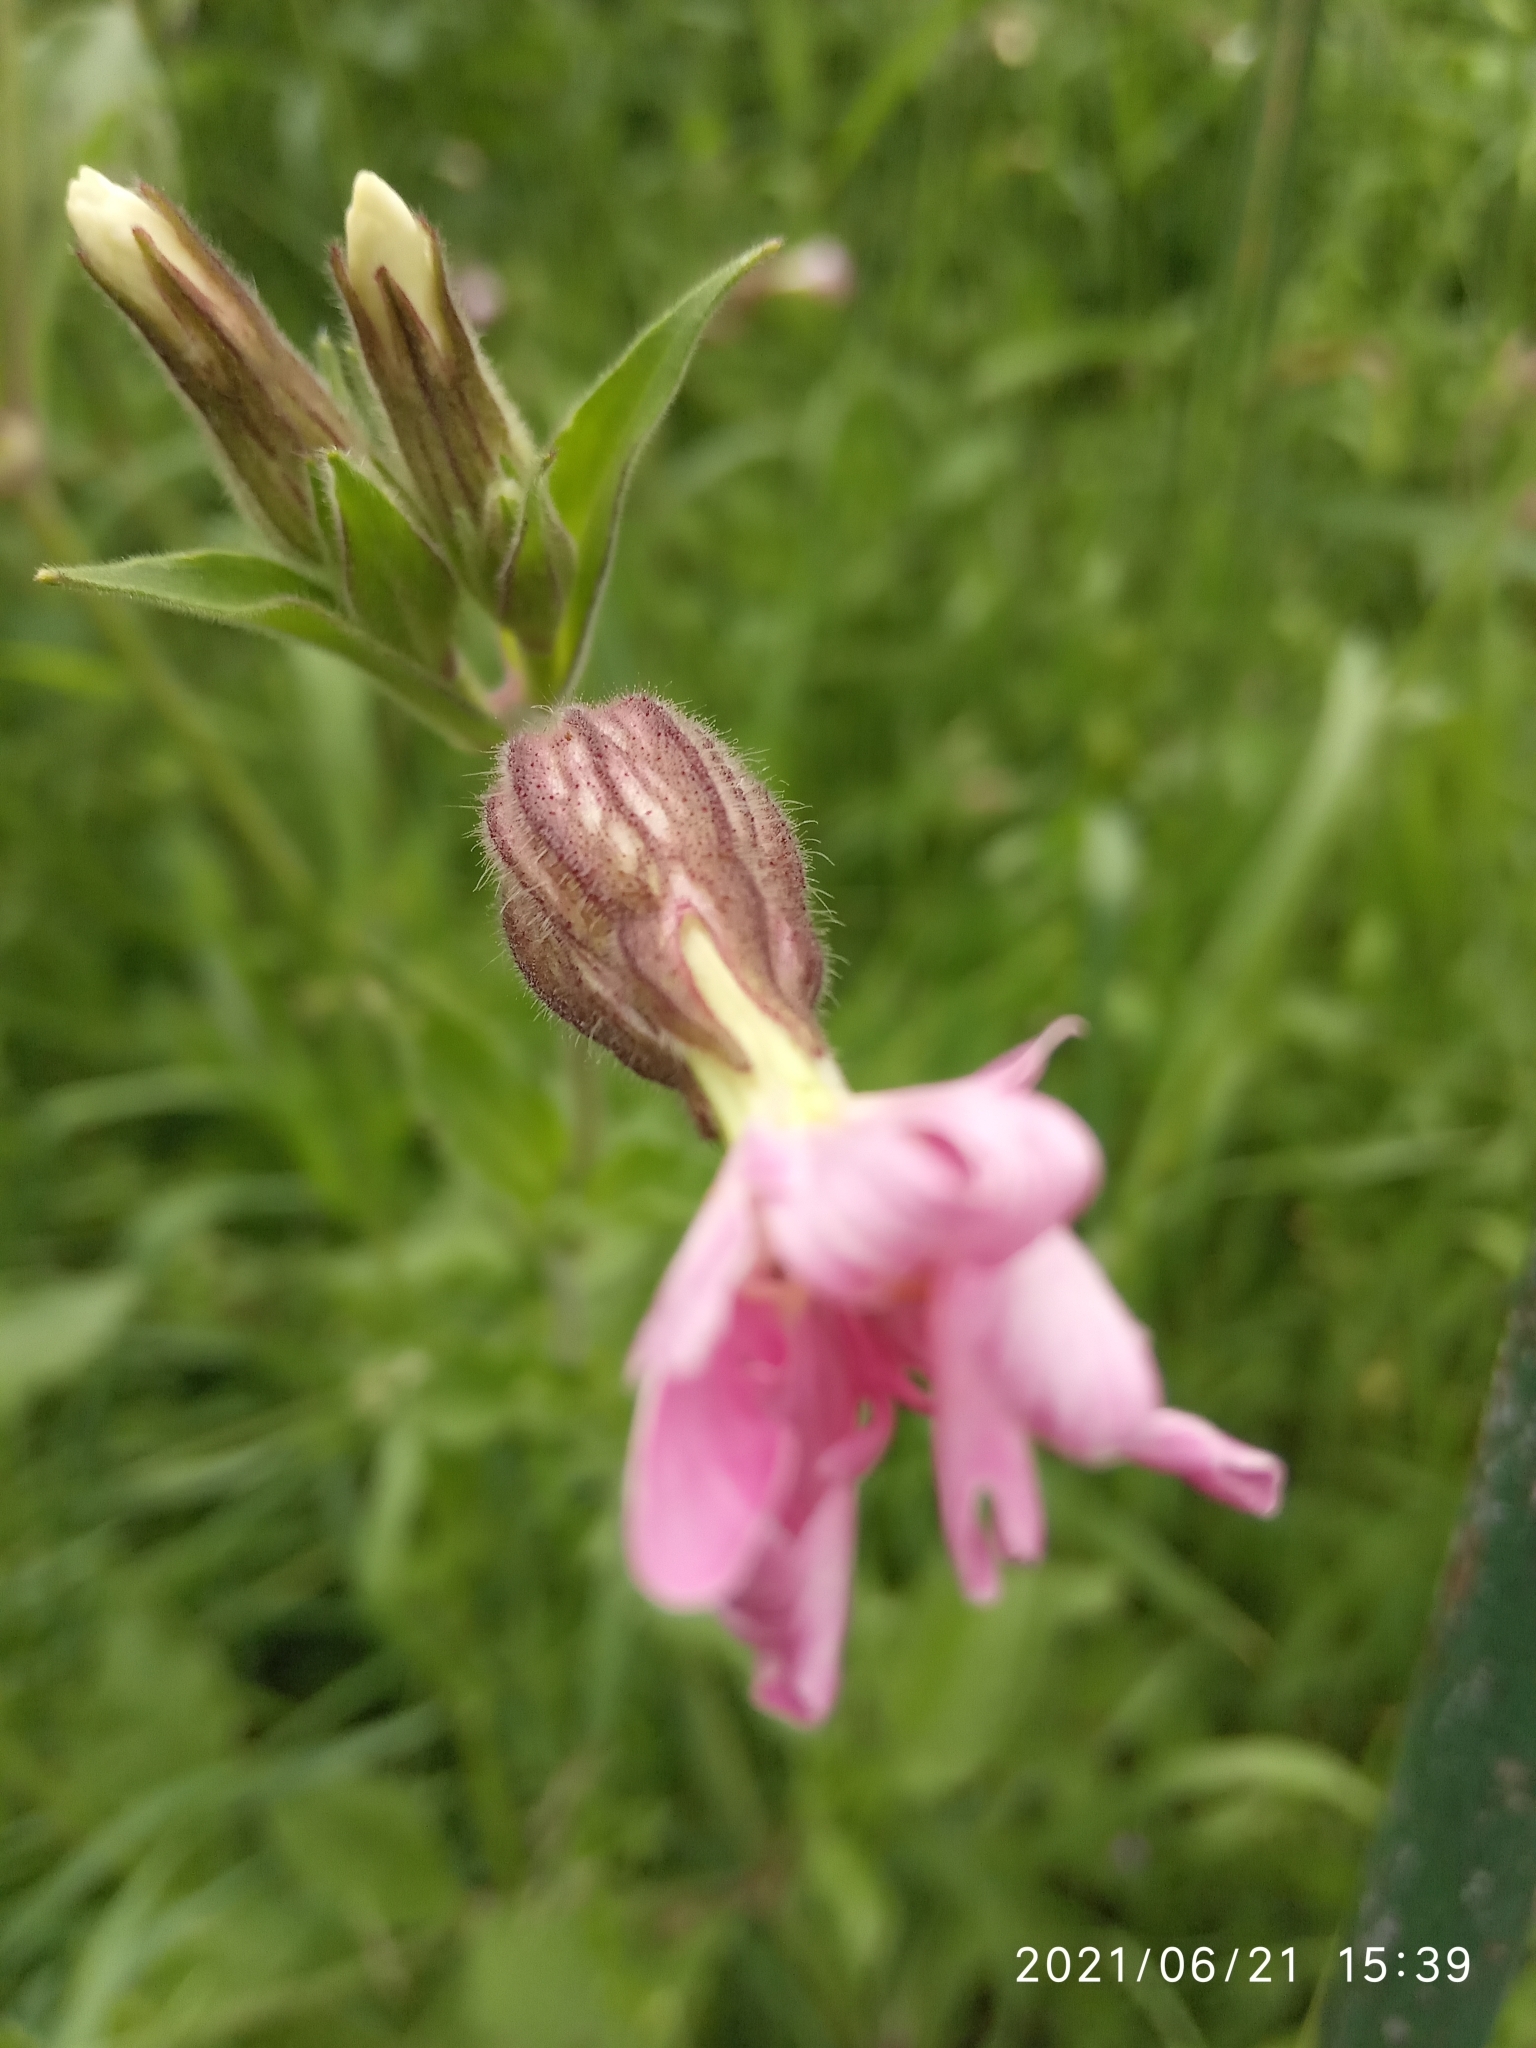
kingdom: Plantae
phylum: Tracheophyta
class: Magnoliopsida
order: Caryophyllales
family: Caryophyllaceae
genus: Silene
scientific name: Silene dioica
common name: Red campion
